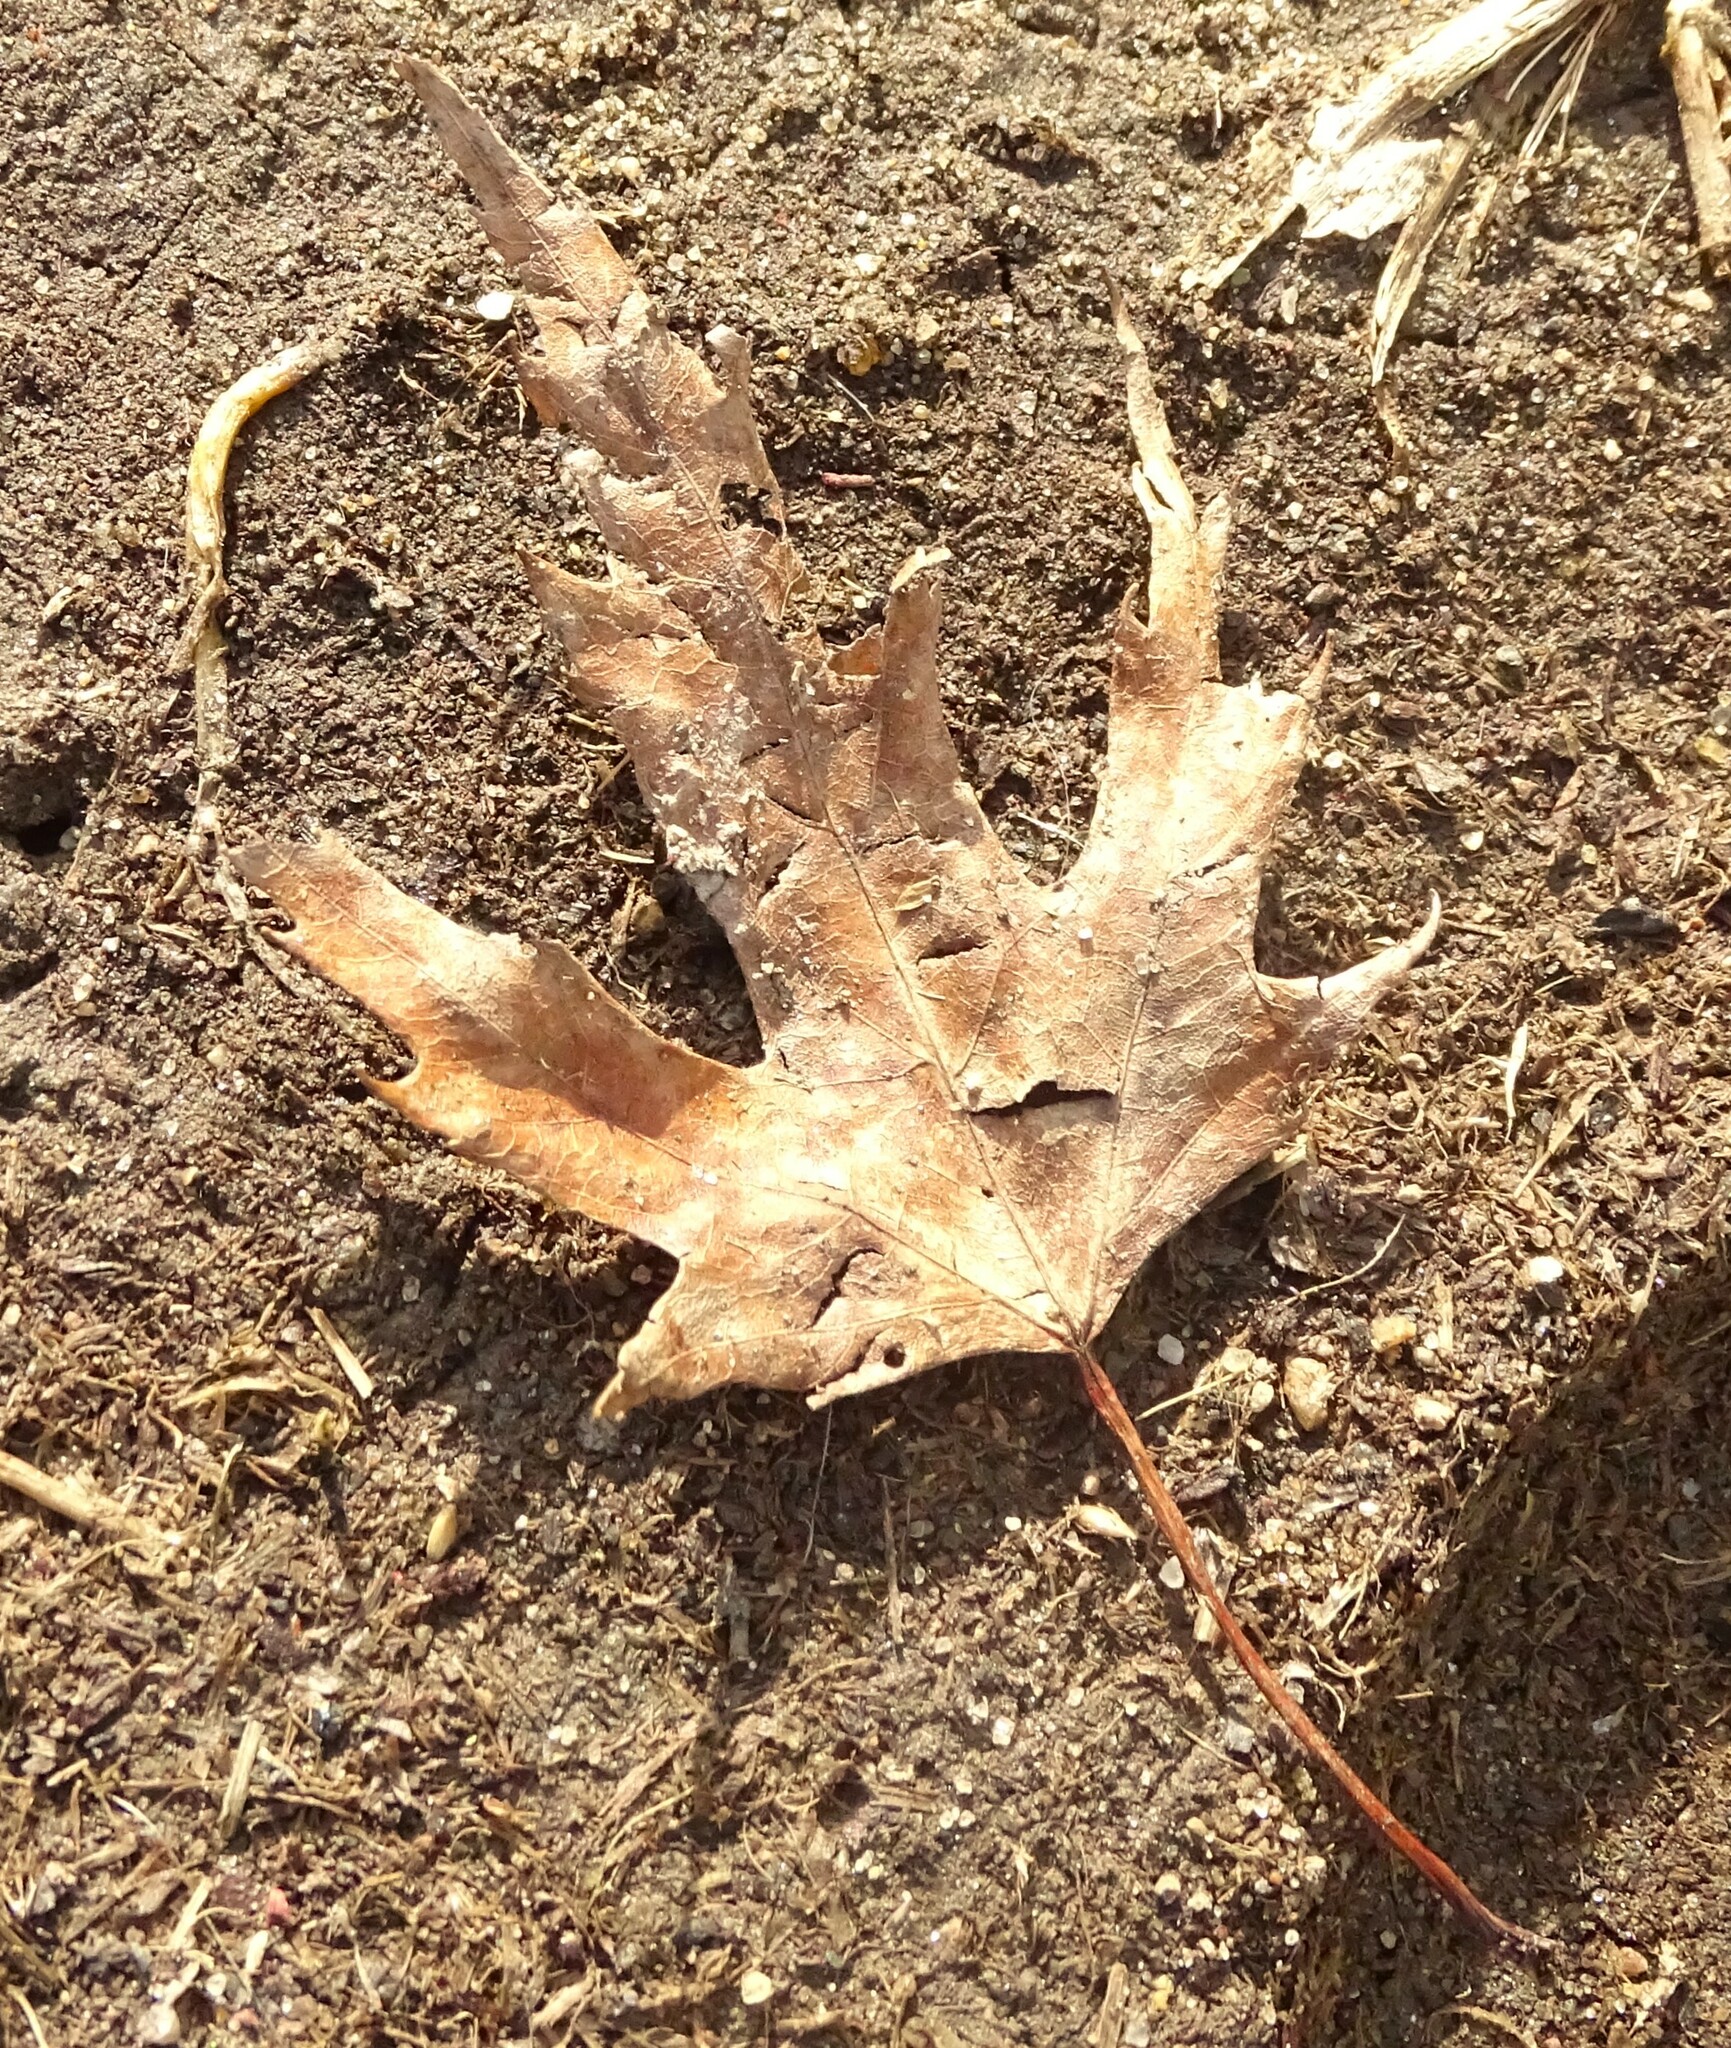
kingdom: Plantae
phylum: Tracheophyta
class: Magnoliopsida
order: Sapindales
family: Sapindaceae
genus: Acer
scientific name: Acer saccharinum
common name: Silver maple
